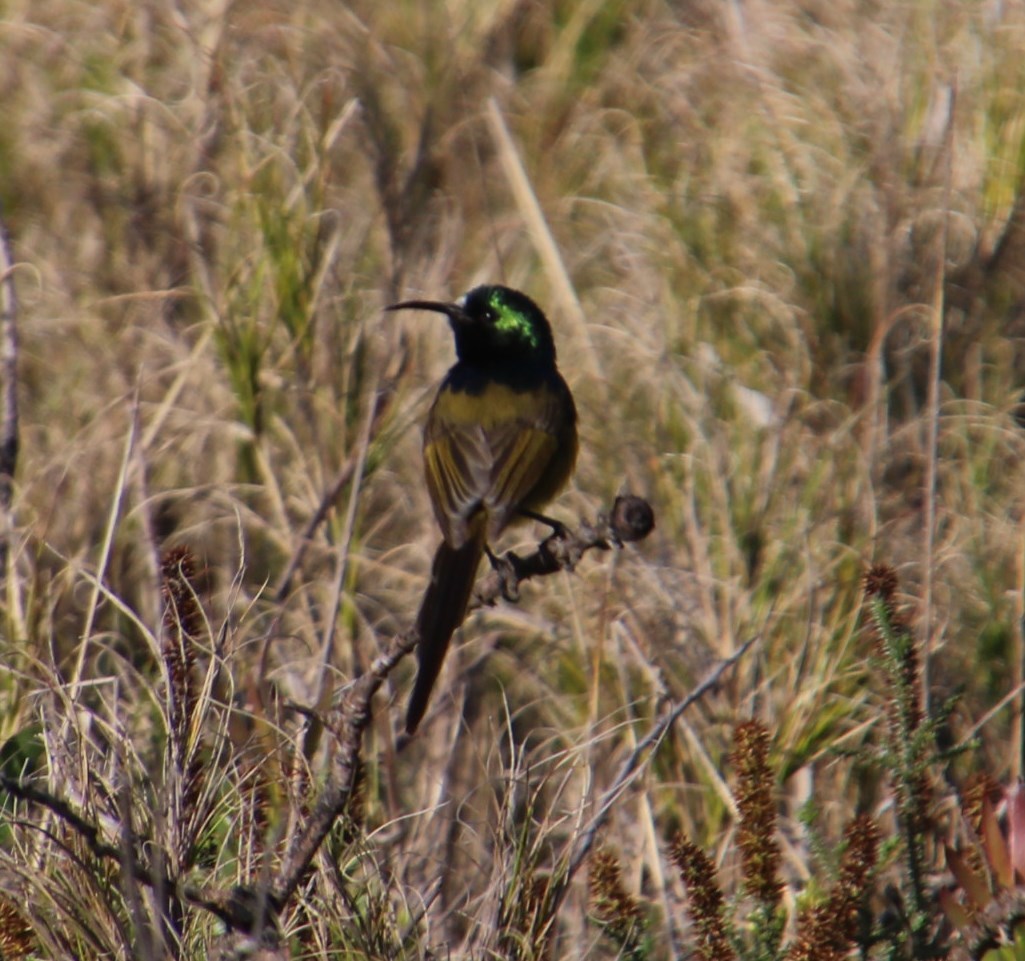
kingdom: Animalia
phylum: Chordata
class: Aves
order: Passeriformes
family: Nectariniidae
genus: Anthobaphes
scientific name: Anthobaphes violacea
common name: Orange-breasted sunbird
